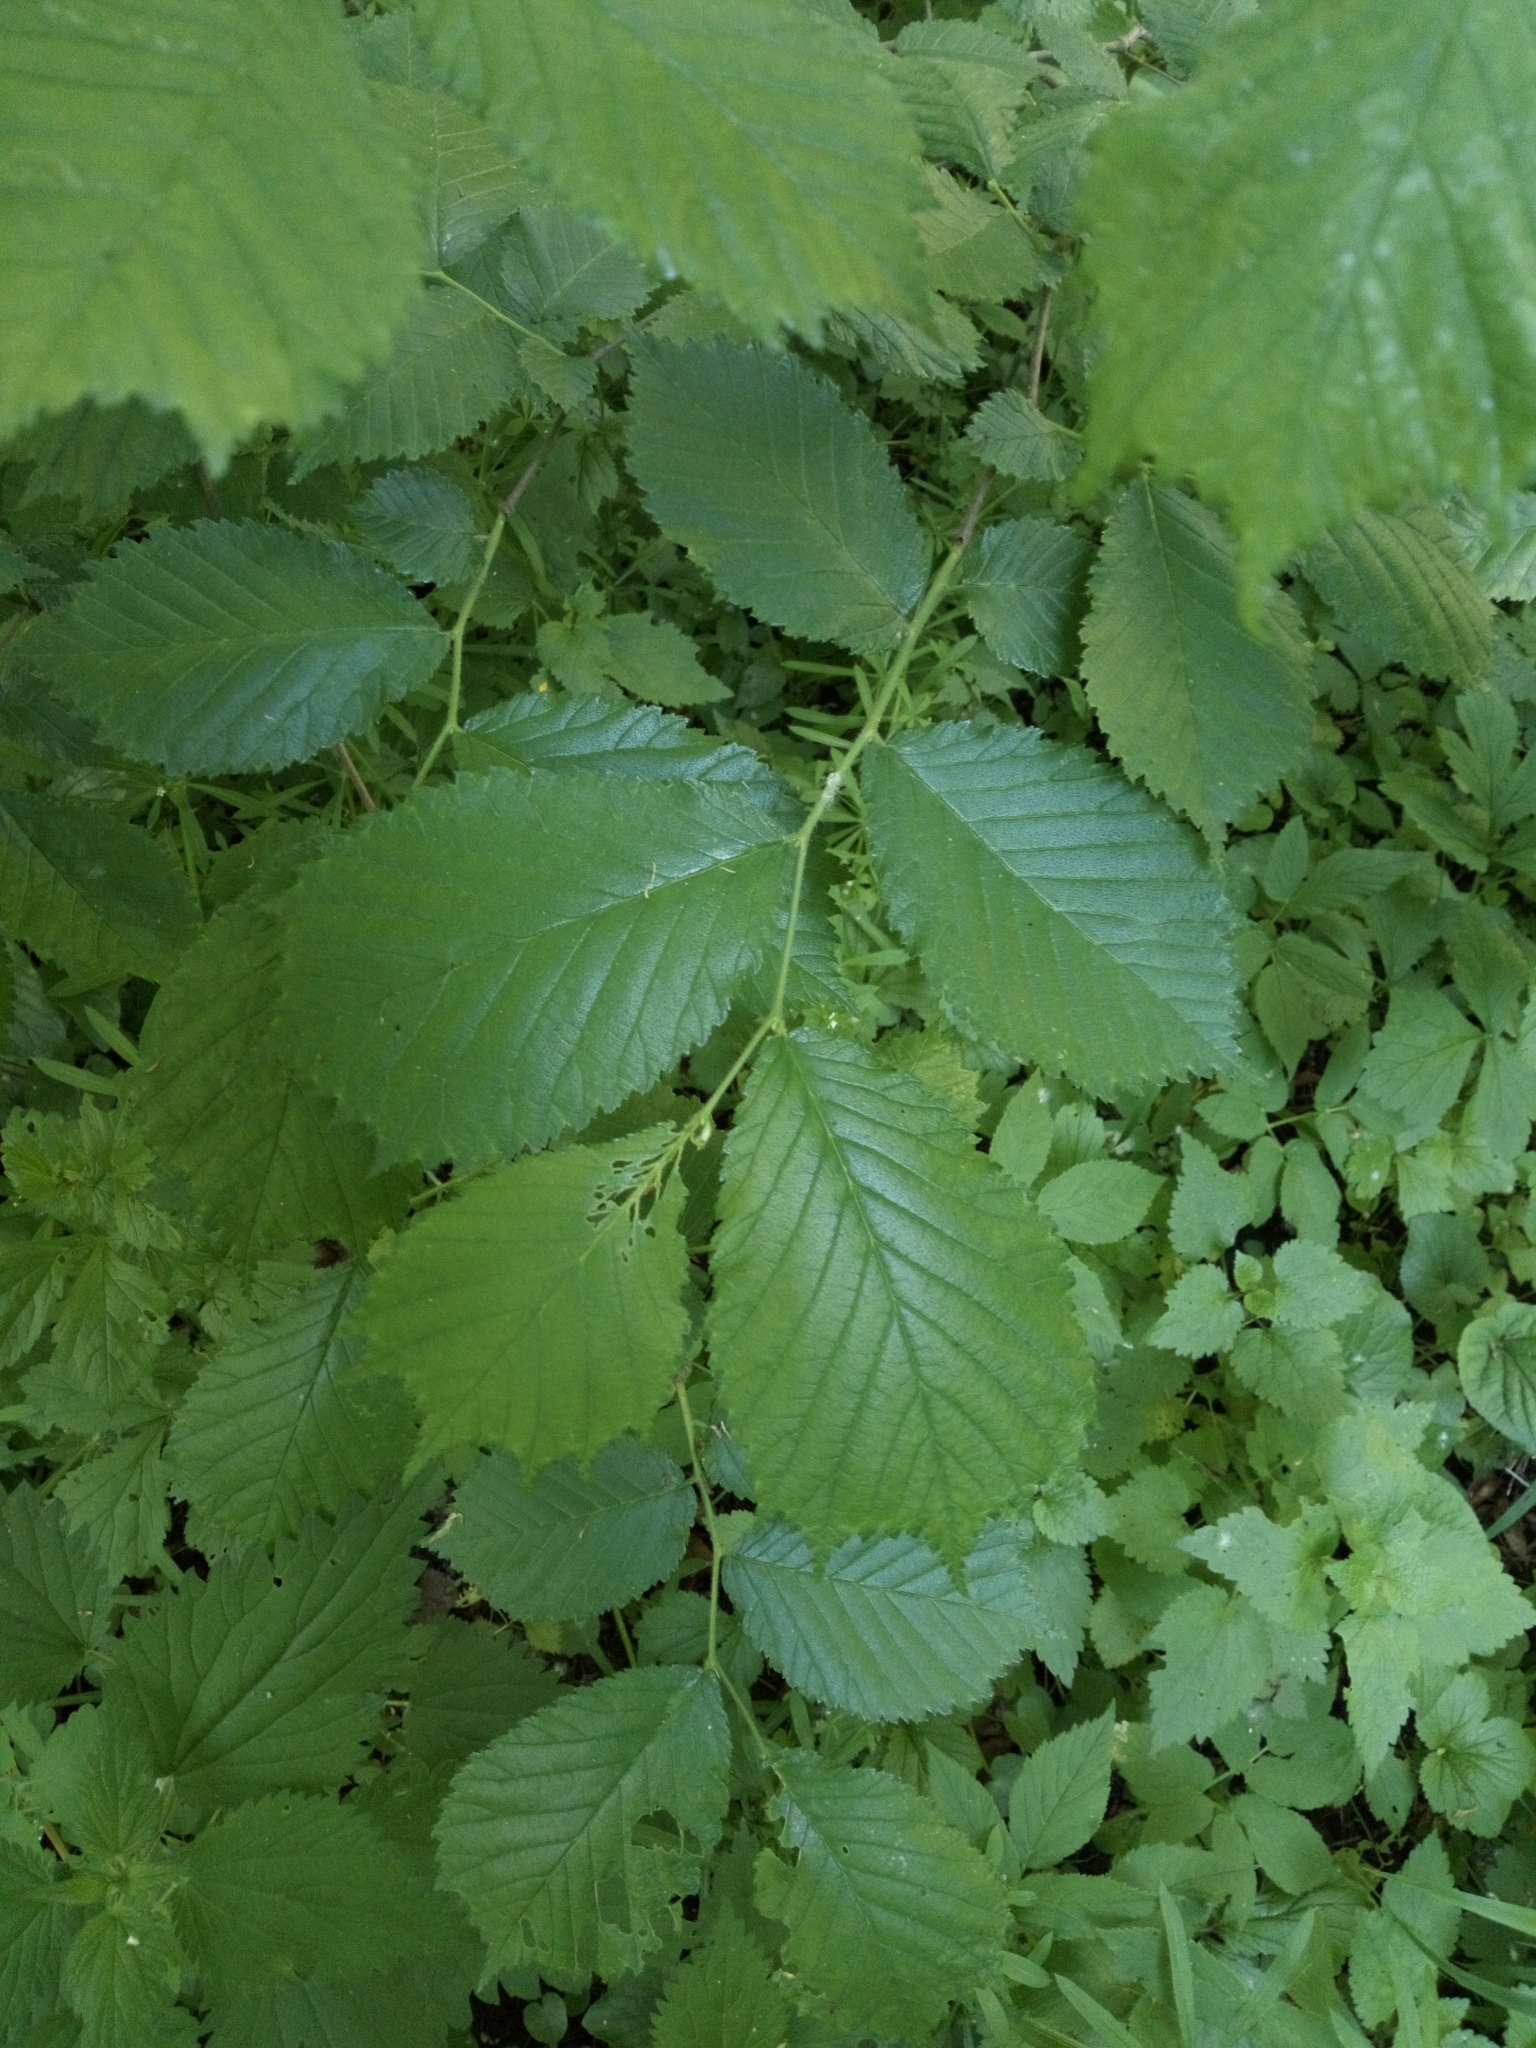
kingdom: Plantae
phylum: Tracheophyta
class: Magnoliopsida
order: Rosales
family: Ulmaceae
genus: Ulmus
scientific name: Ulmus glabra
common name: Wych elm
